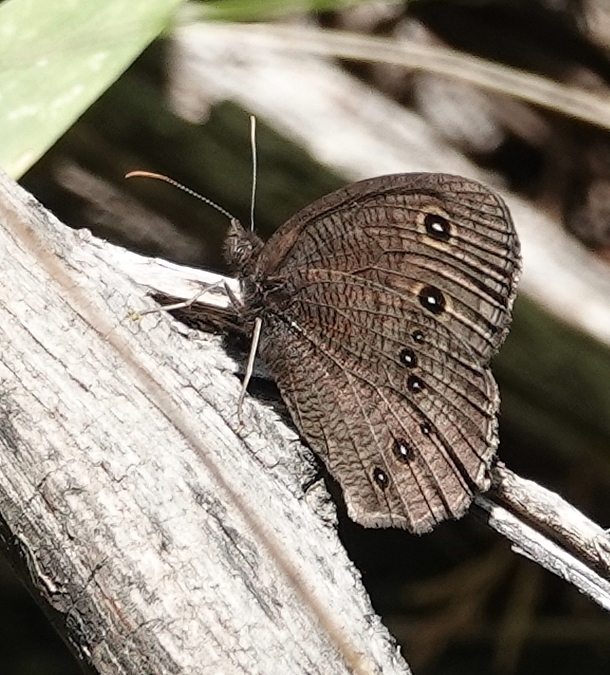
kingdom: Animalia
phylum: Arthropoda
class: Insecta
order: Lepidoptera
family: Nymphalidae
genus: Cercyonis
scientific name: Cercyonis pegala
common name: Common wood-nymph
